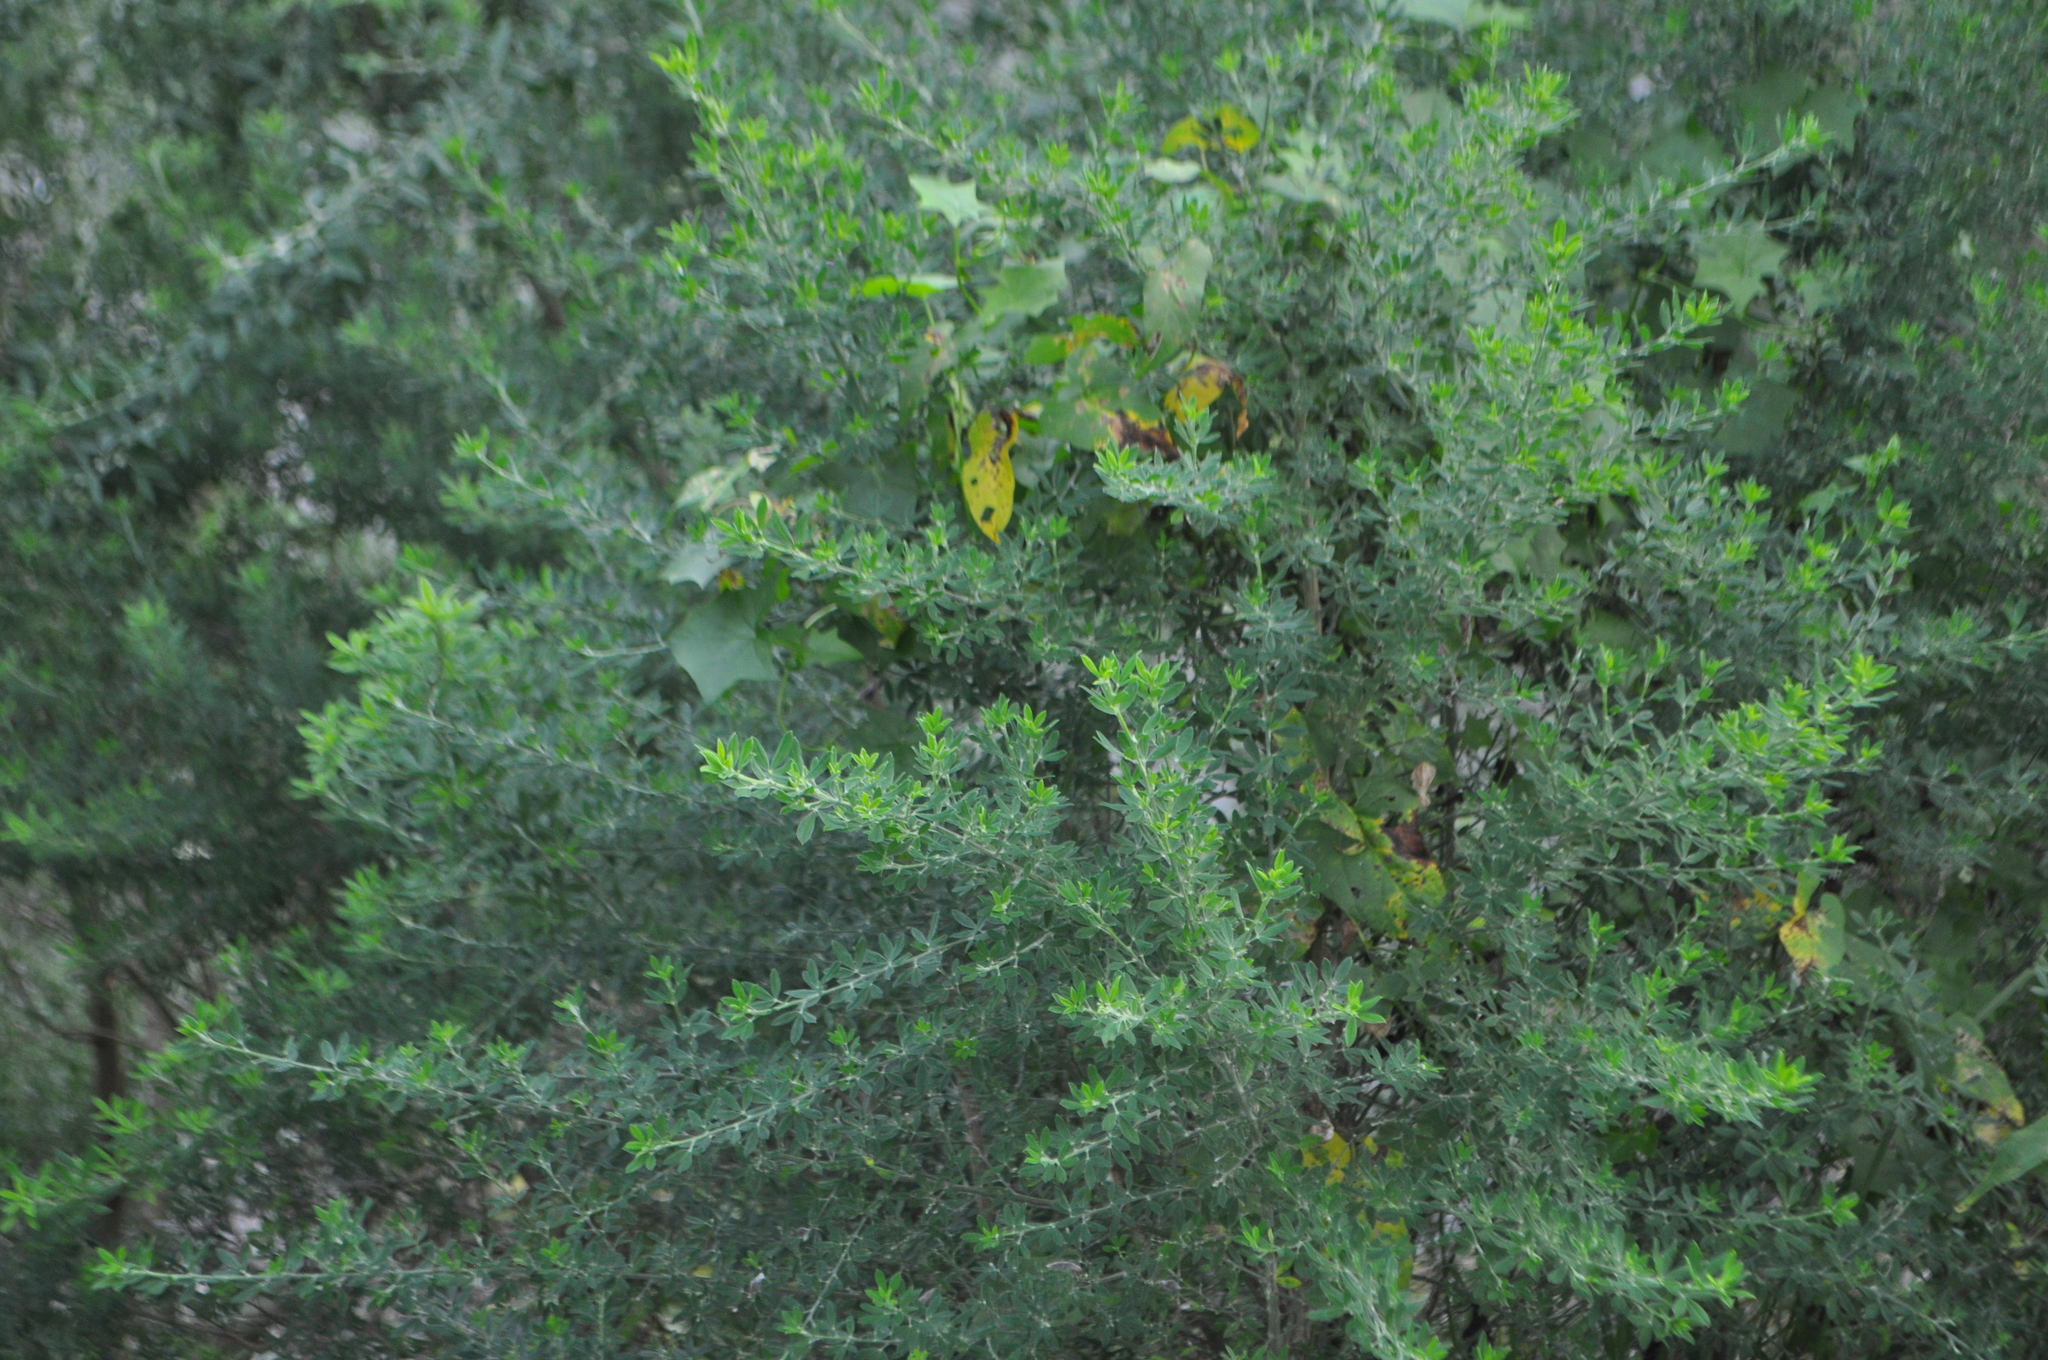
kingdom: Plantae
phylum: Tracheophyta
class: Magnoliopsida
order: Fabales
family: Fabaceae
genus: Genista
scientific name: Genista stenopetala
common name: Leafy broom
